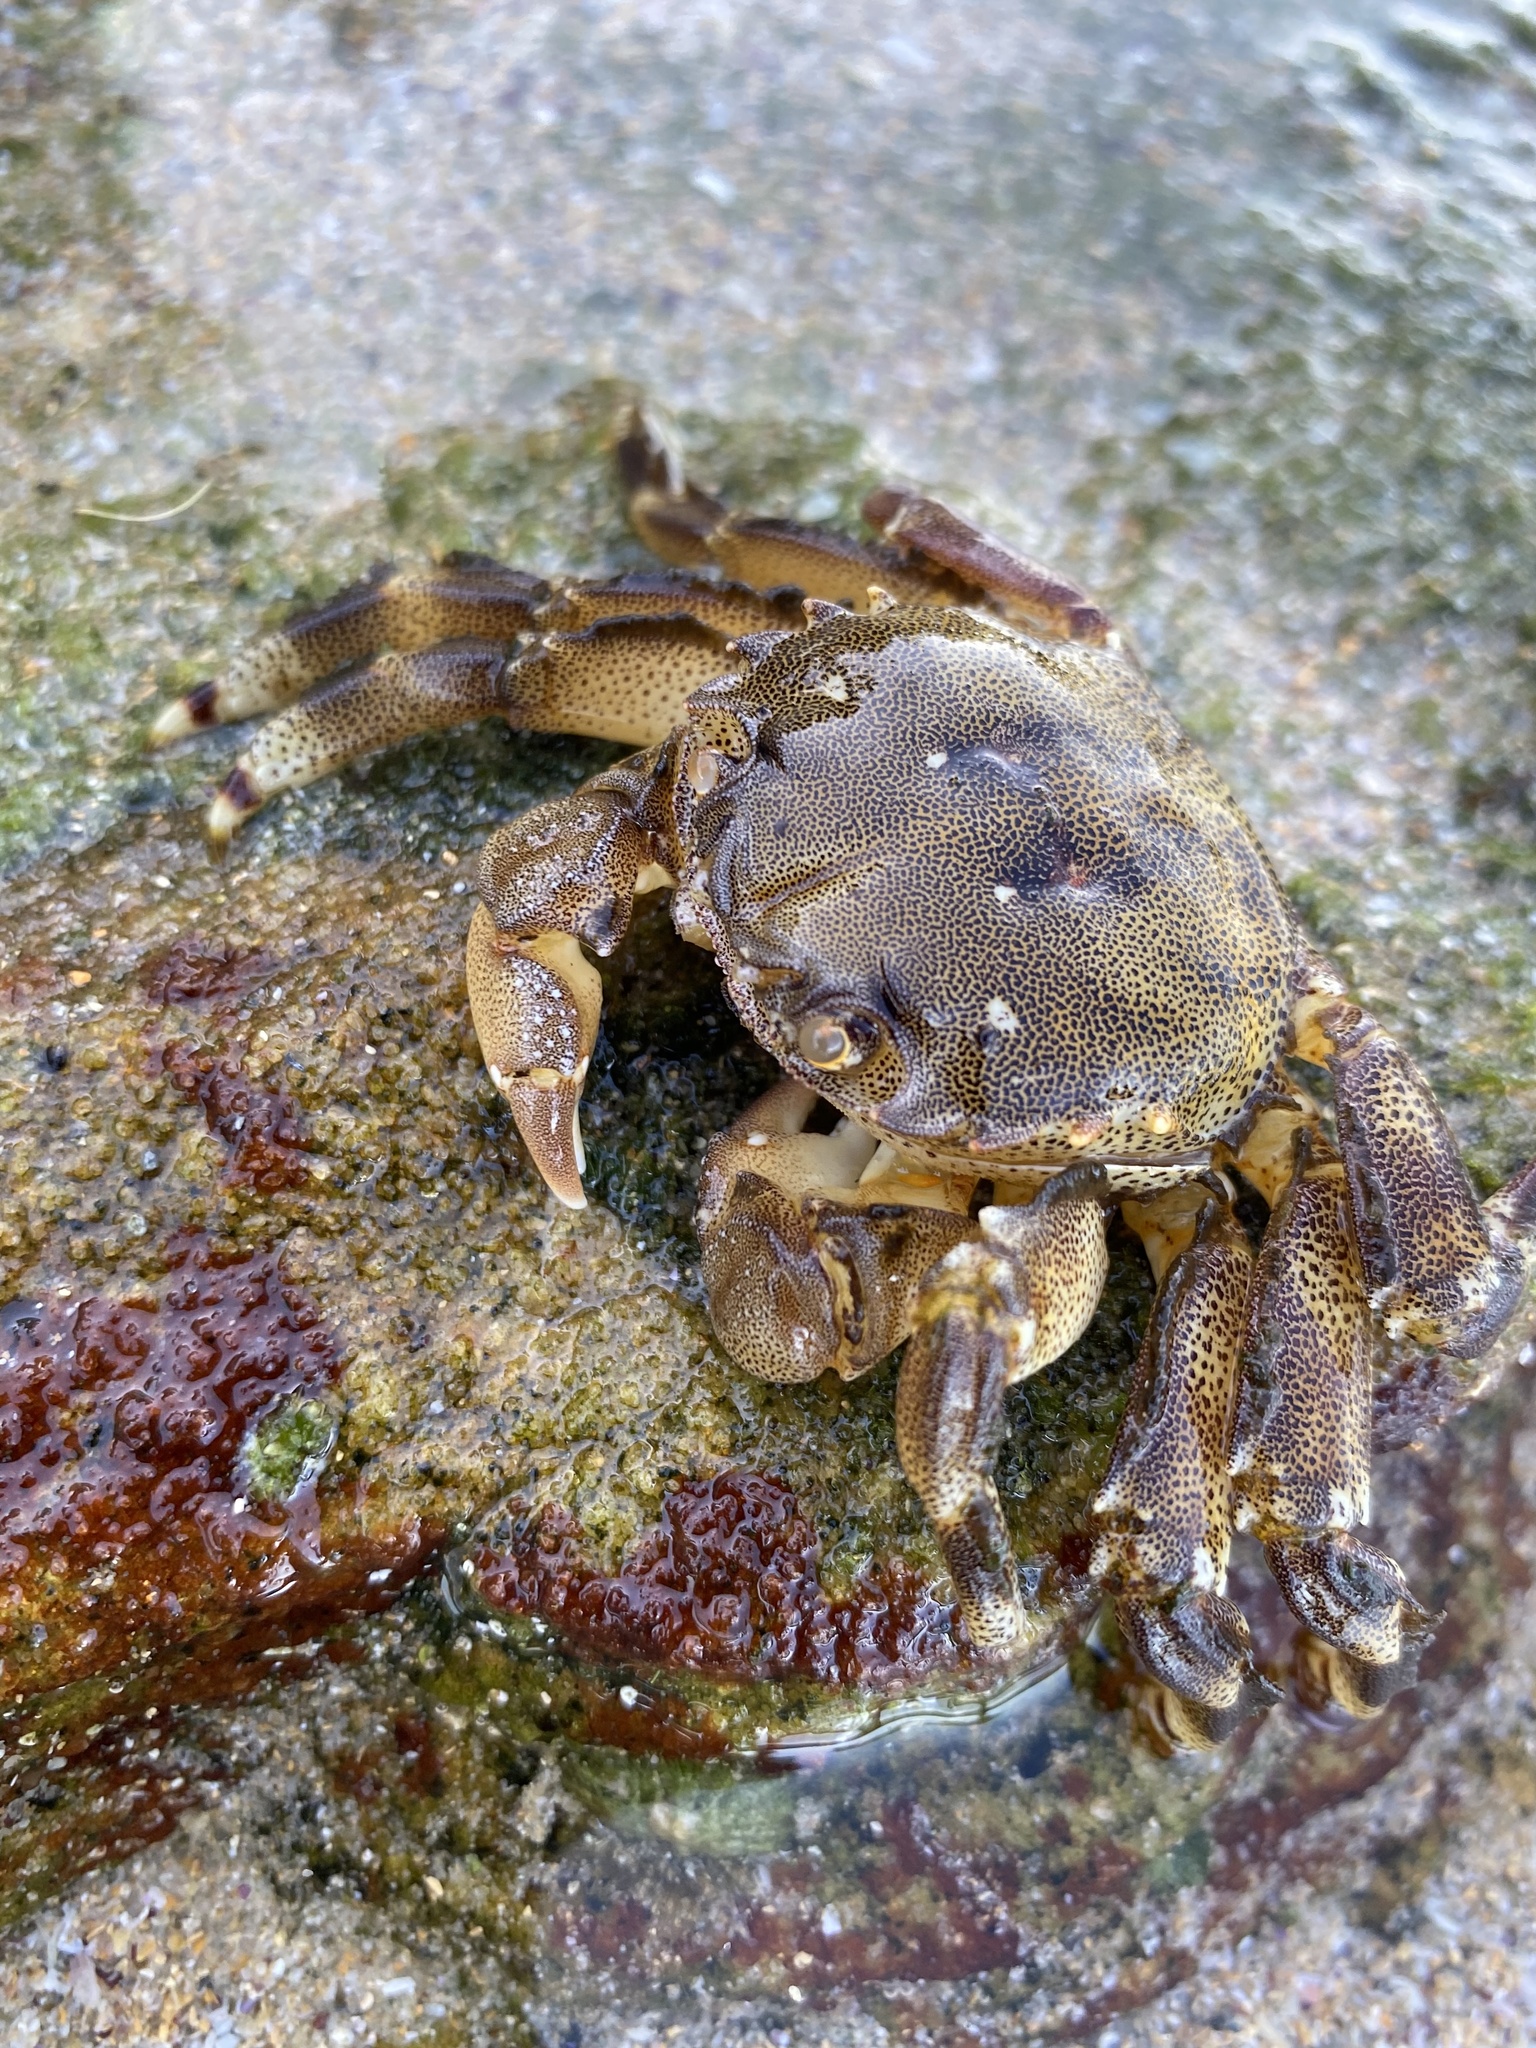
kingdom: Animalia
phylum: Arthropoda
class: Malacostraca
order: Decapoda
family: Plagusiidae
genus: Davusia
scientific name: Davusia glabra
